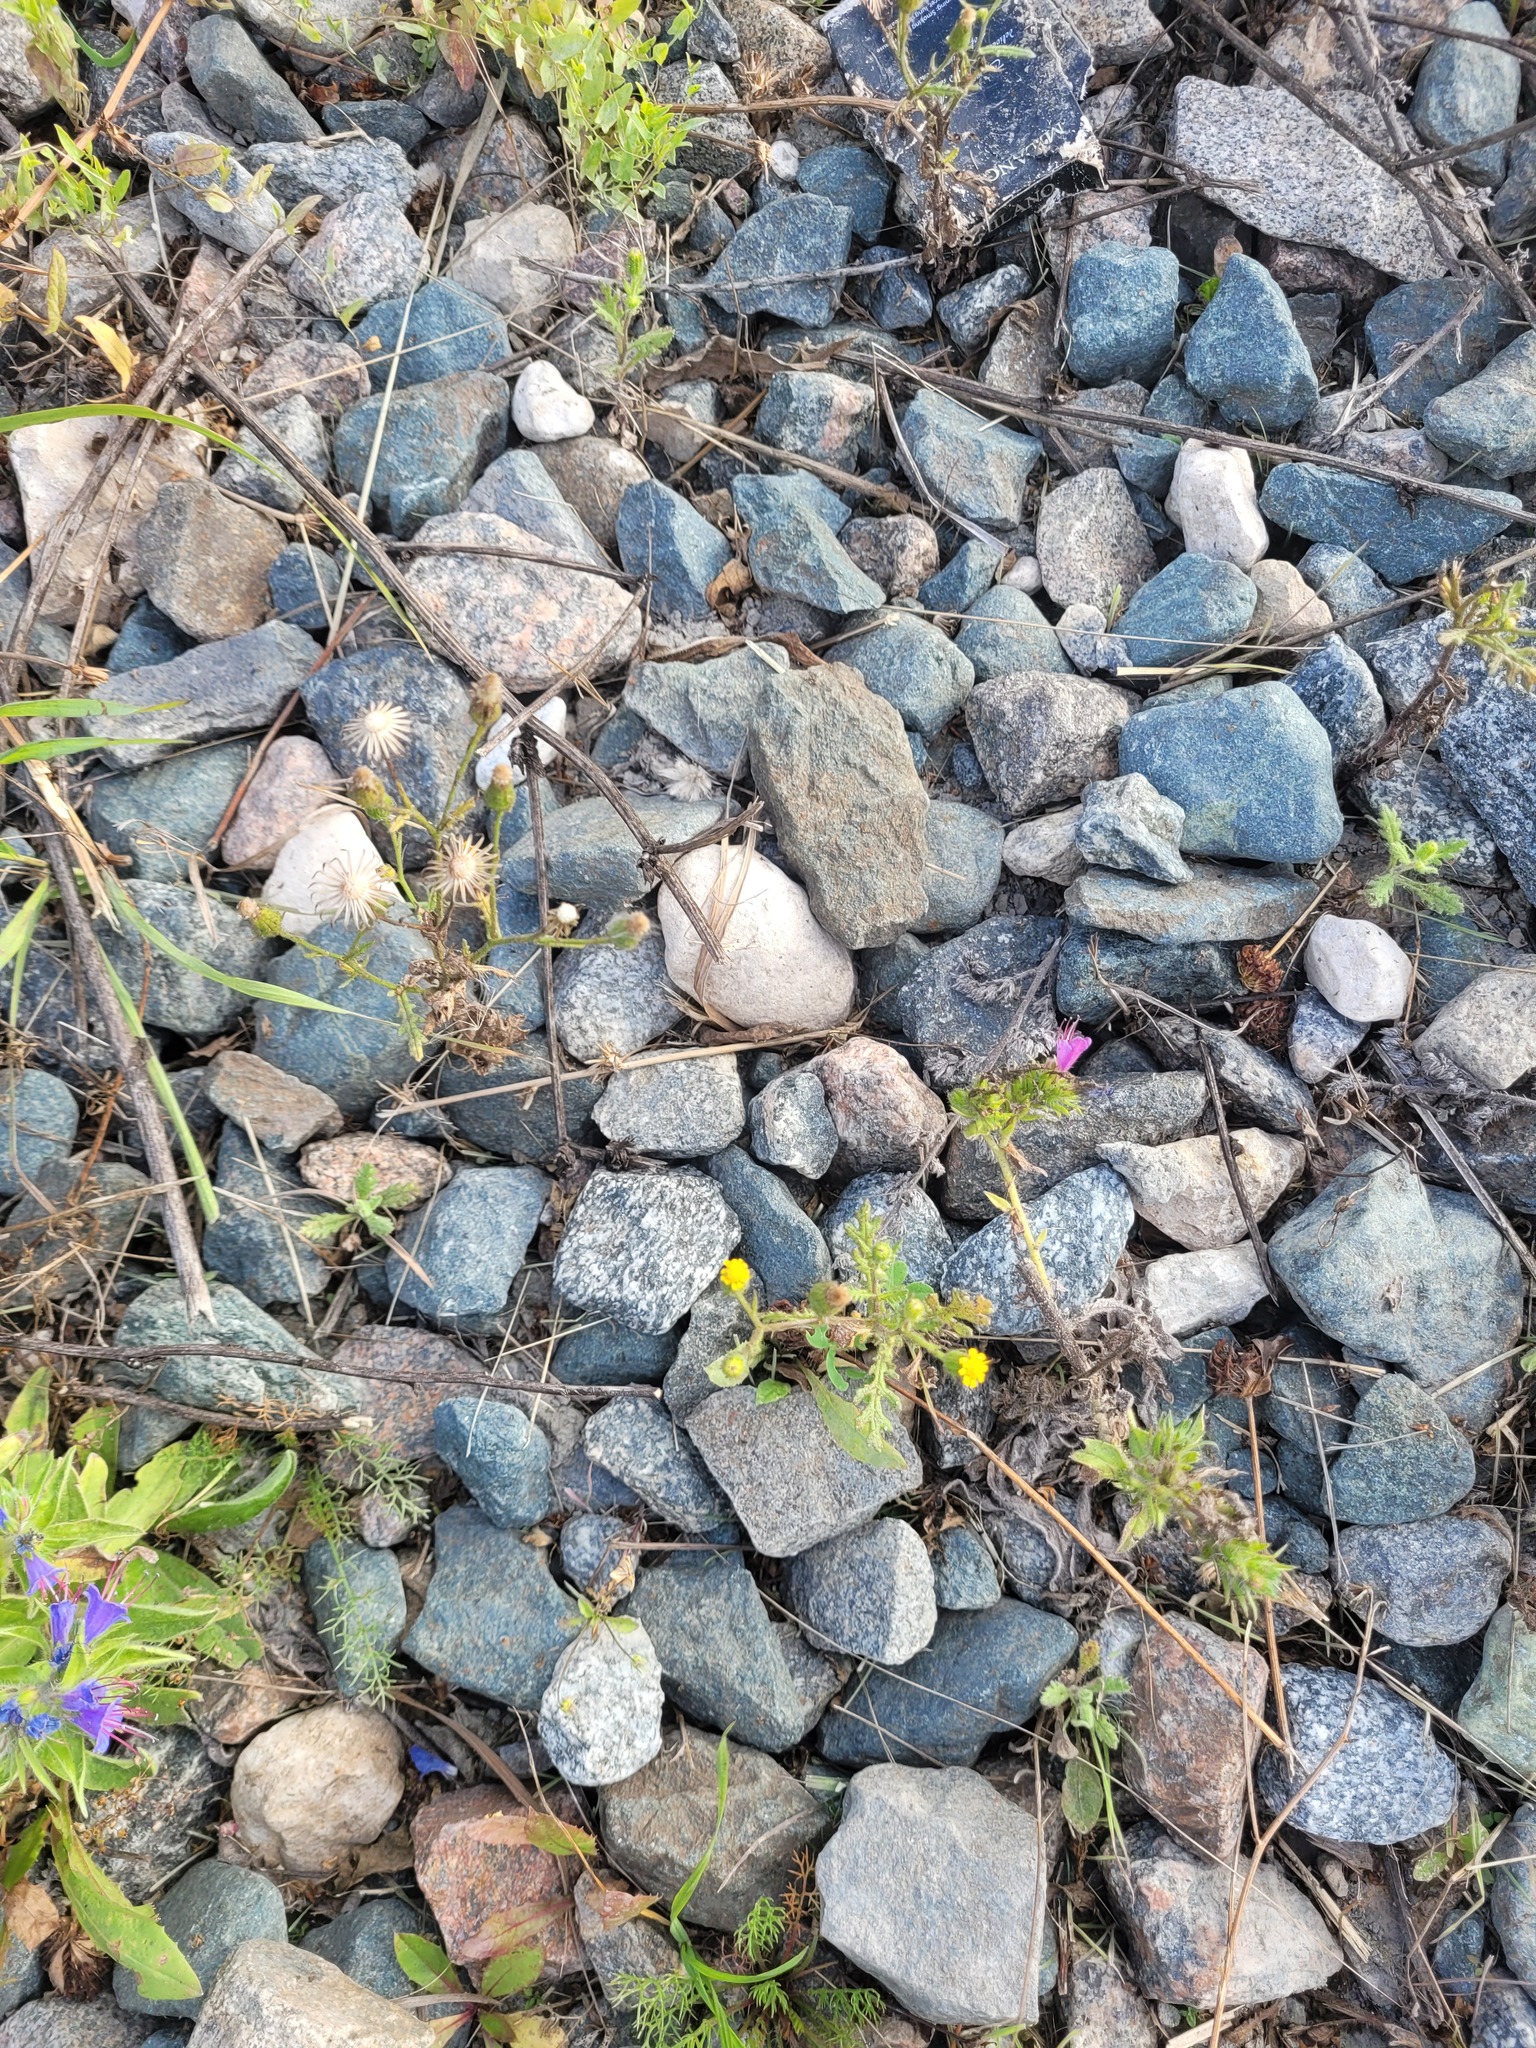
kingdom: Plantae
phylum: Tracheophyta
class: Magnoliopsida
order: Asterales
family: Asteraceae
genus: Senecio
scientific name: Senecio viscosus
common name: Sticky groundsel
